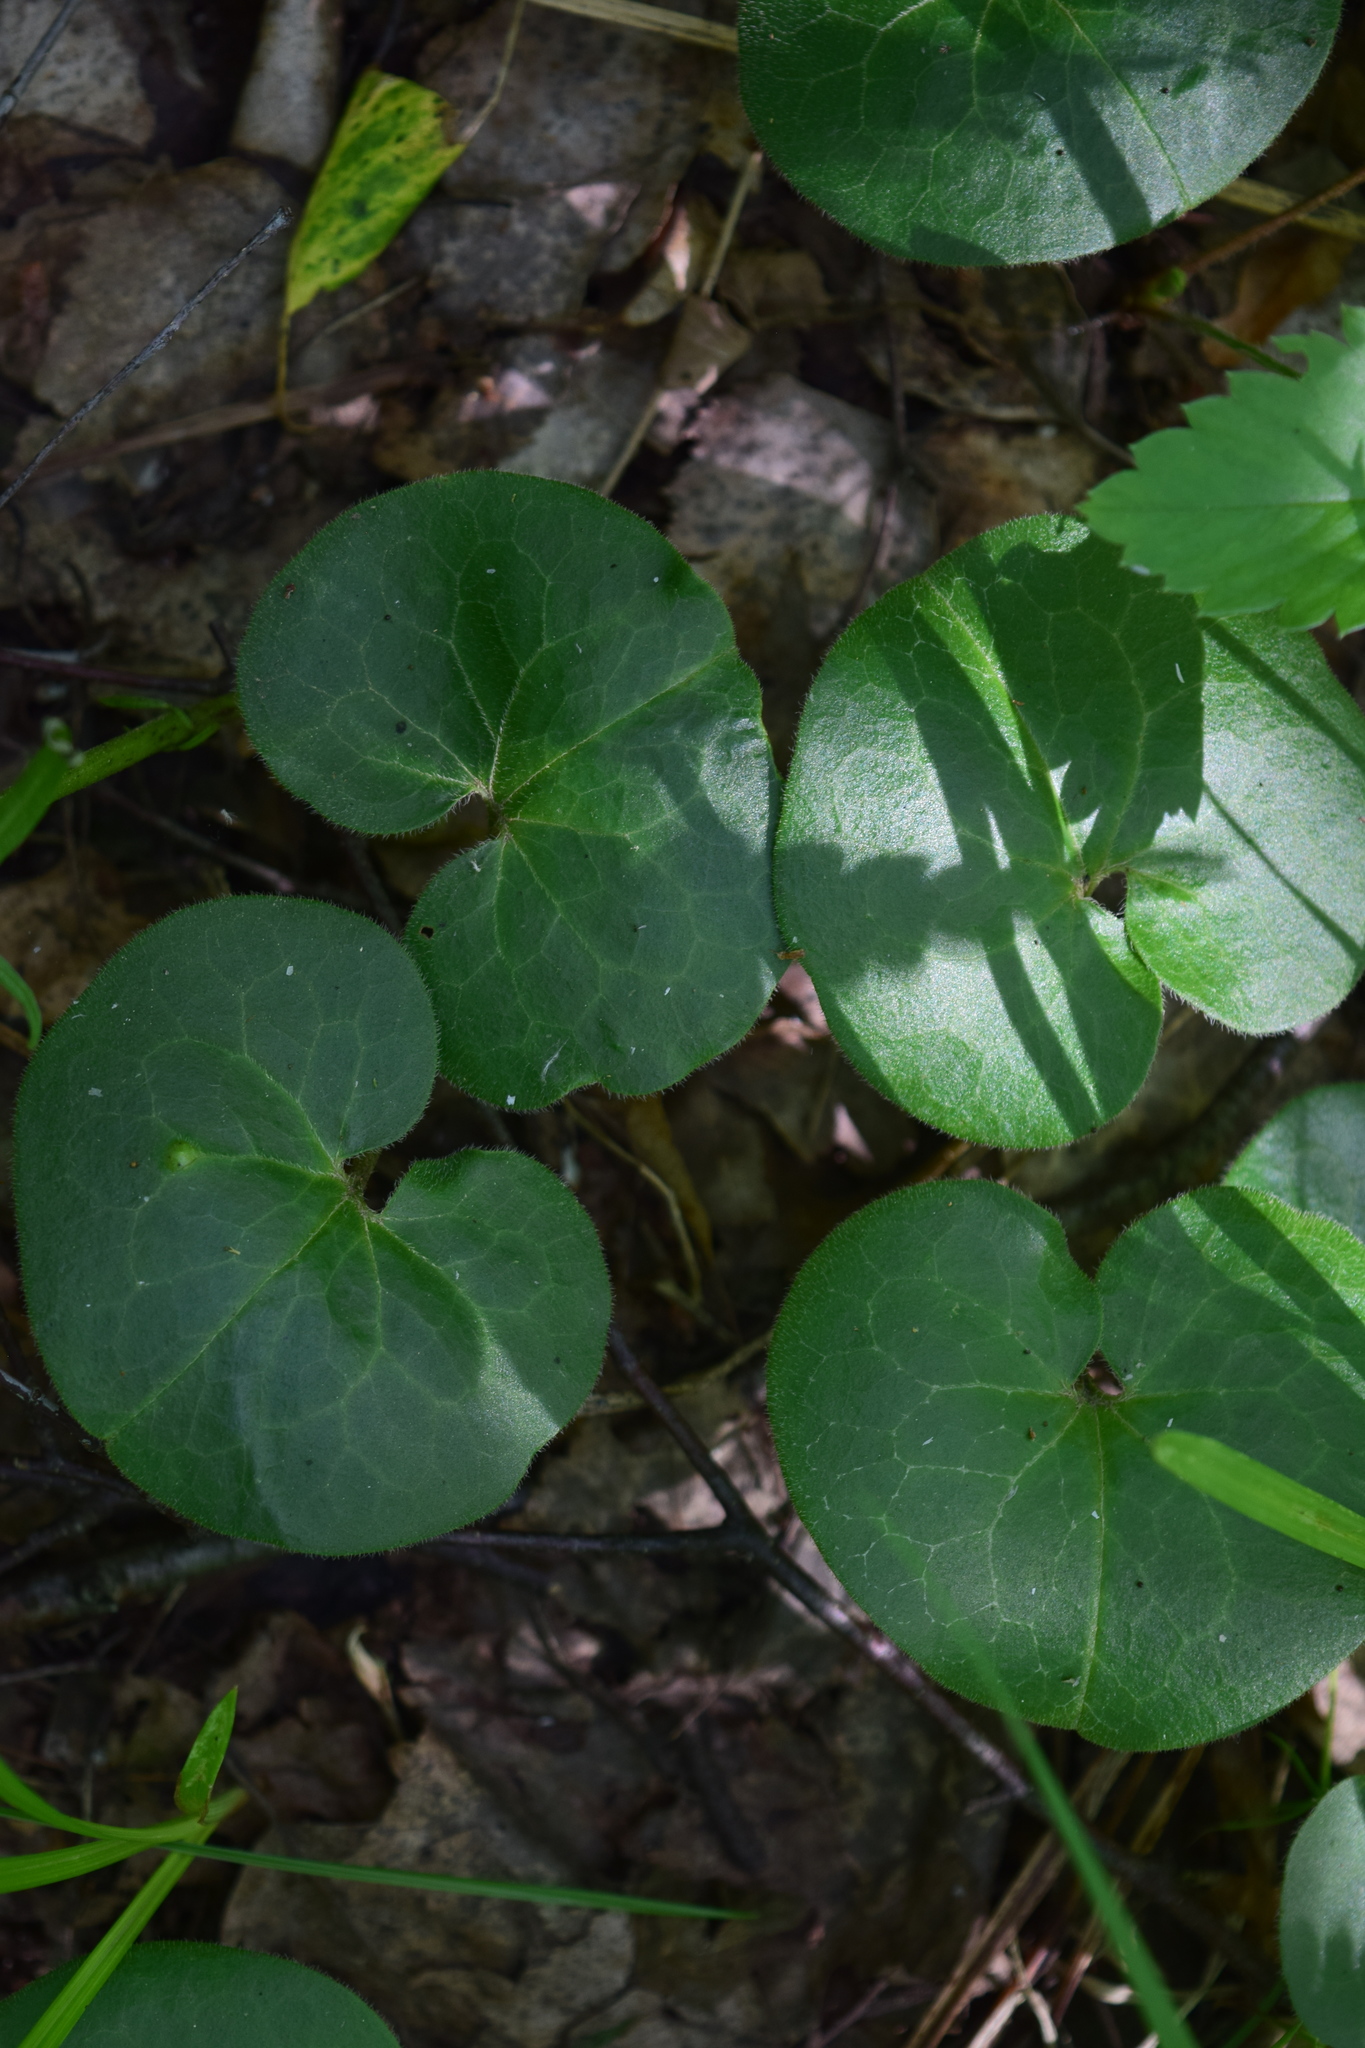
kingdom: Plantae
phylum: Tracheophyta
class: Magnoliopsida
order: Piperales
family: Aristolochiaceae
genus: Asarum
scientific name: Asarum europaeum
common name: Asarabacca
